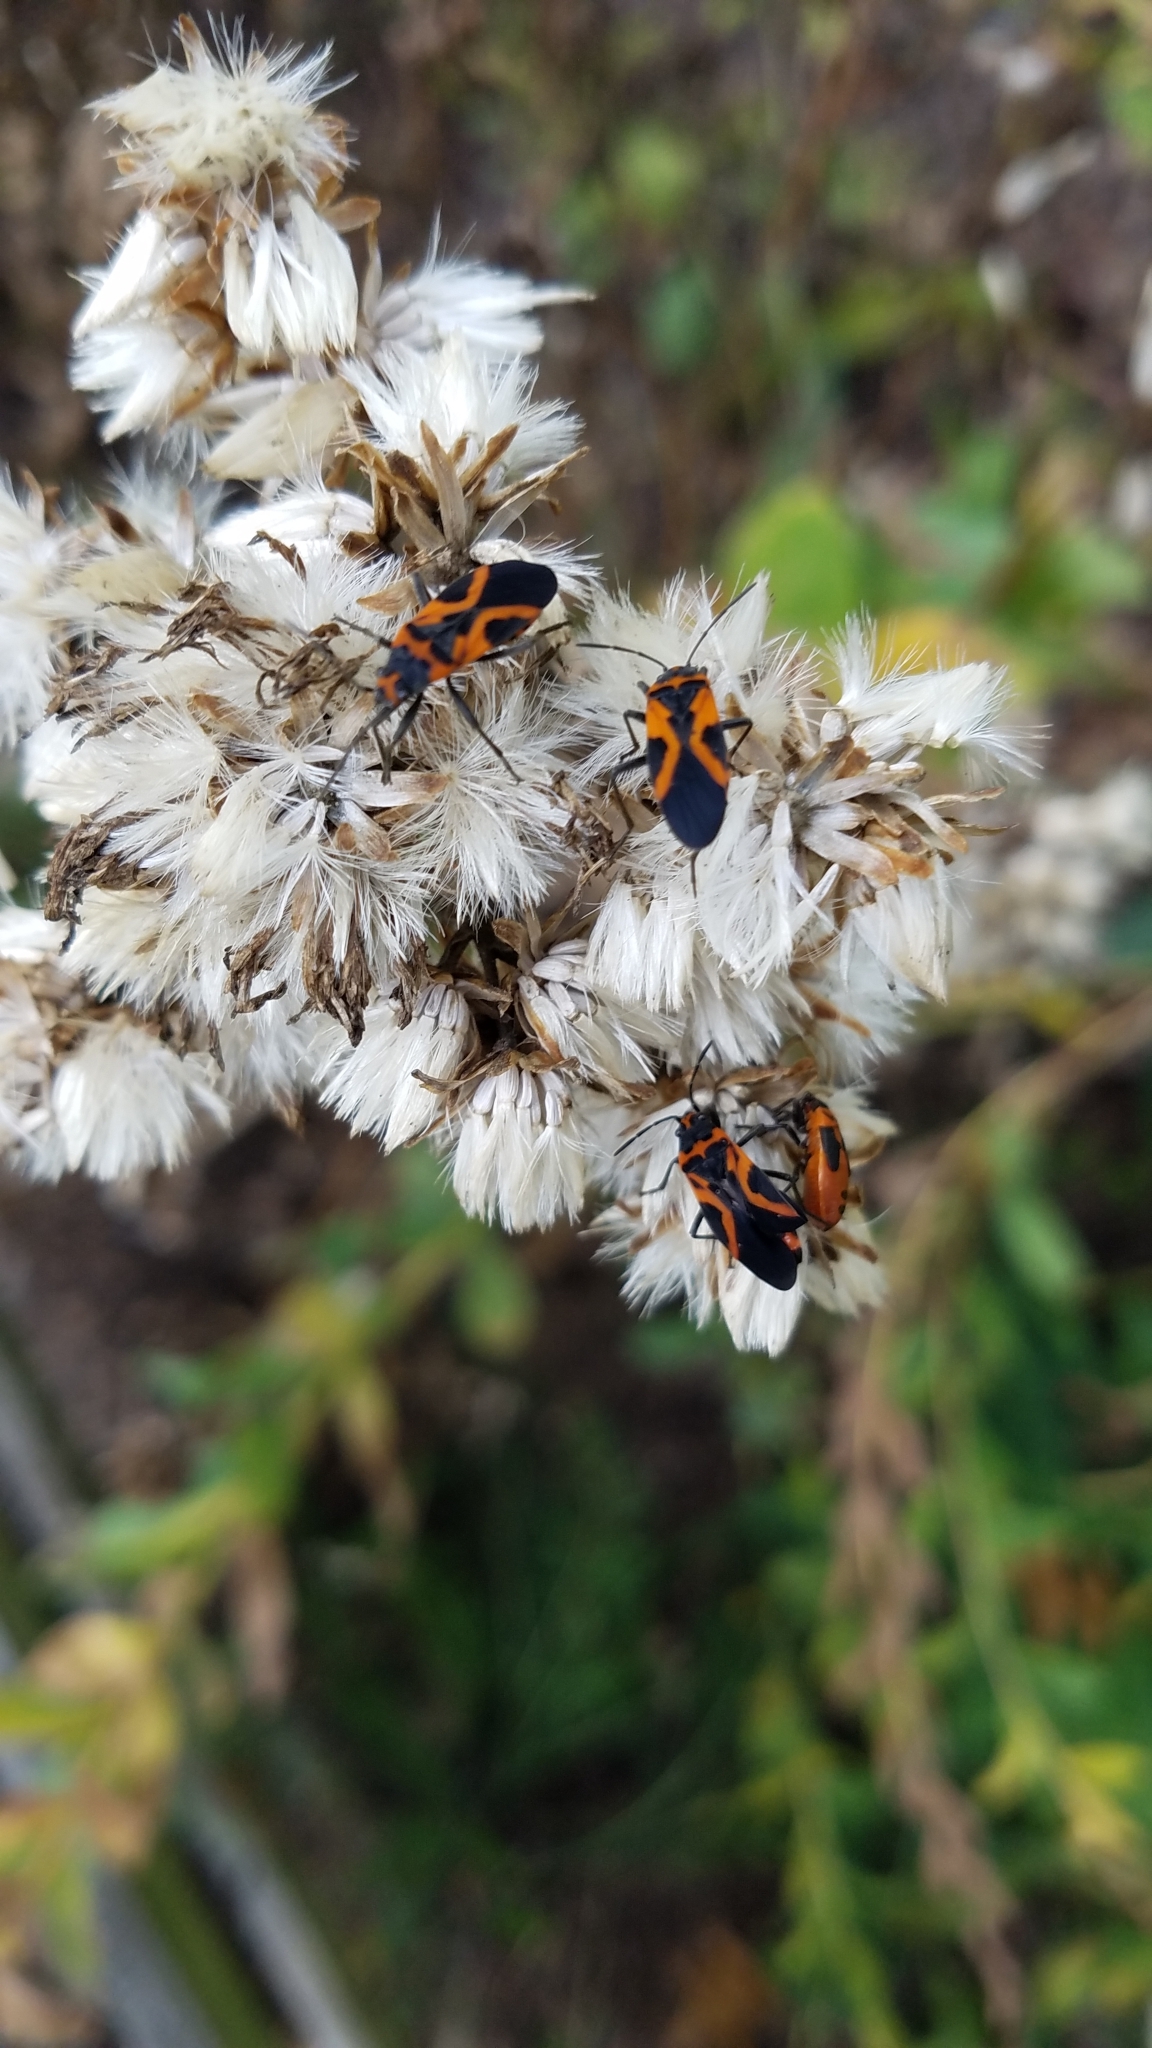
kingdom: Animalia
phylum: Arthropoda
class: Insecta
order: Hemiptera
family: Lygaeidae
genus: Lygaeus
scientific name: Lygaeus turcicus
